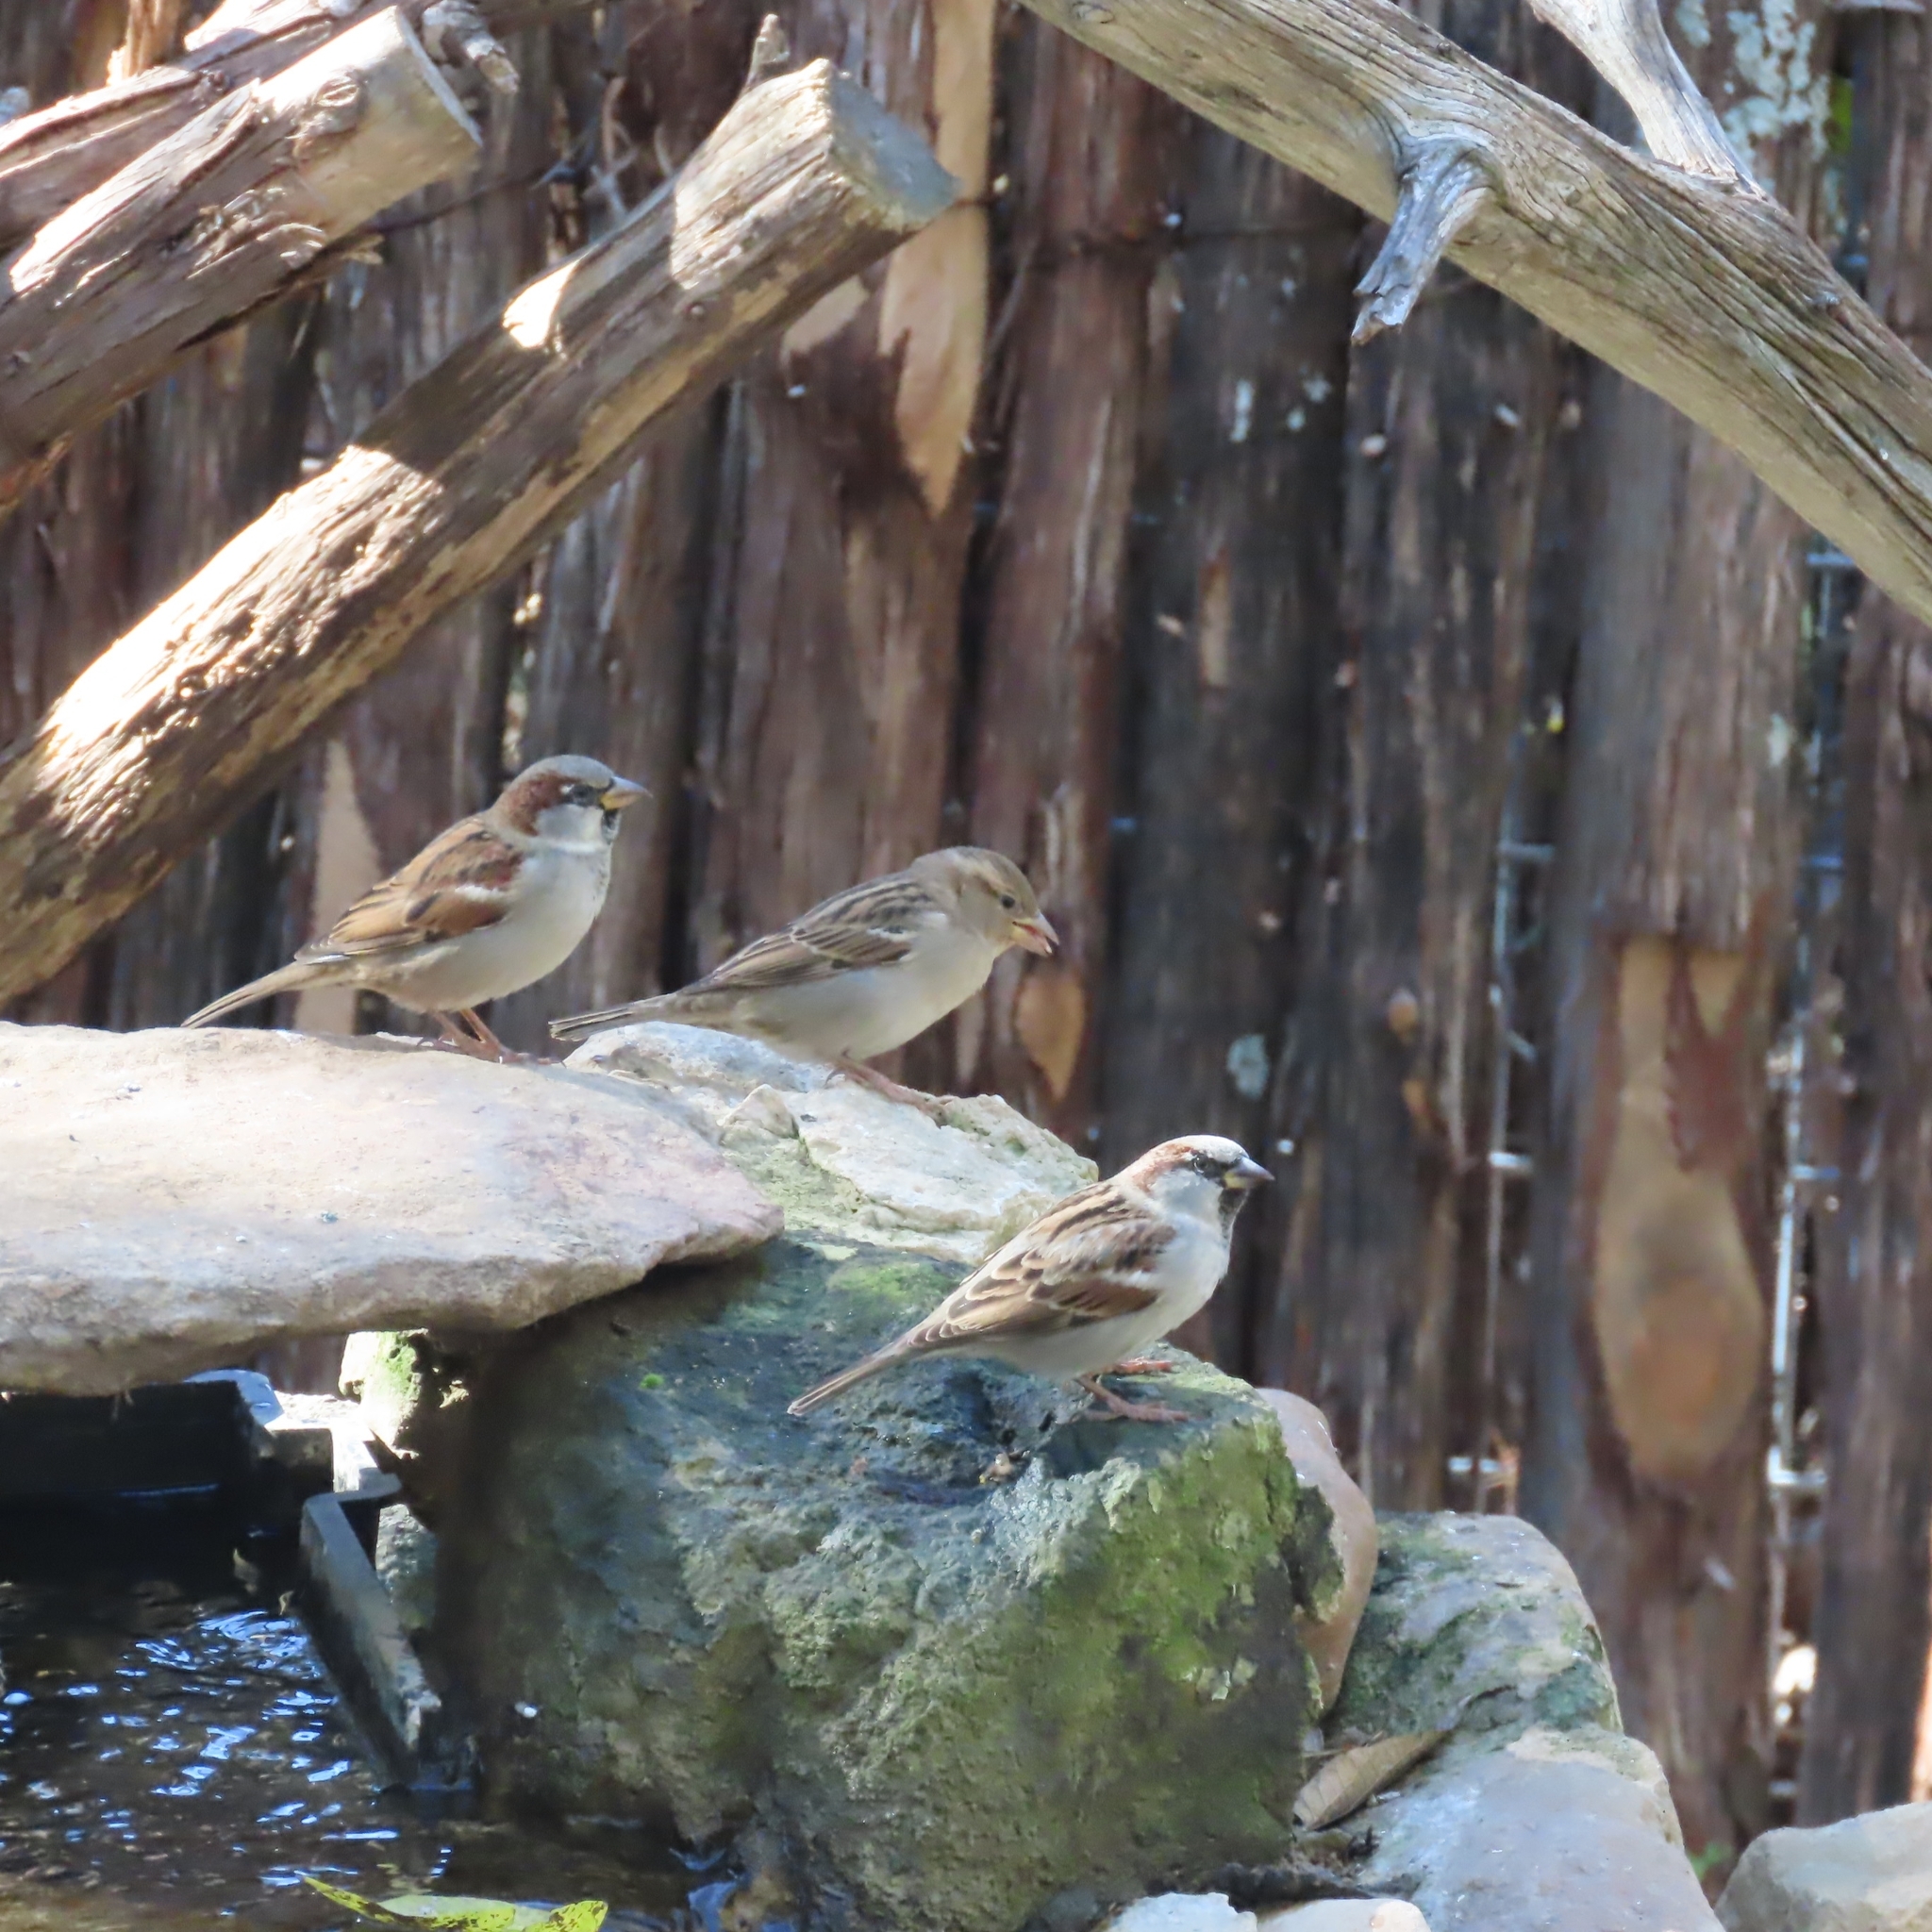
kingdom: Animalia
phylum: Chordata
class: Aves
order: Passeriformes
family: Passeridae
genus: Passer
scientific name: Passer domesticus
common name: House sparrow
